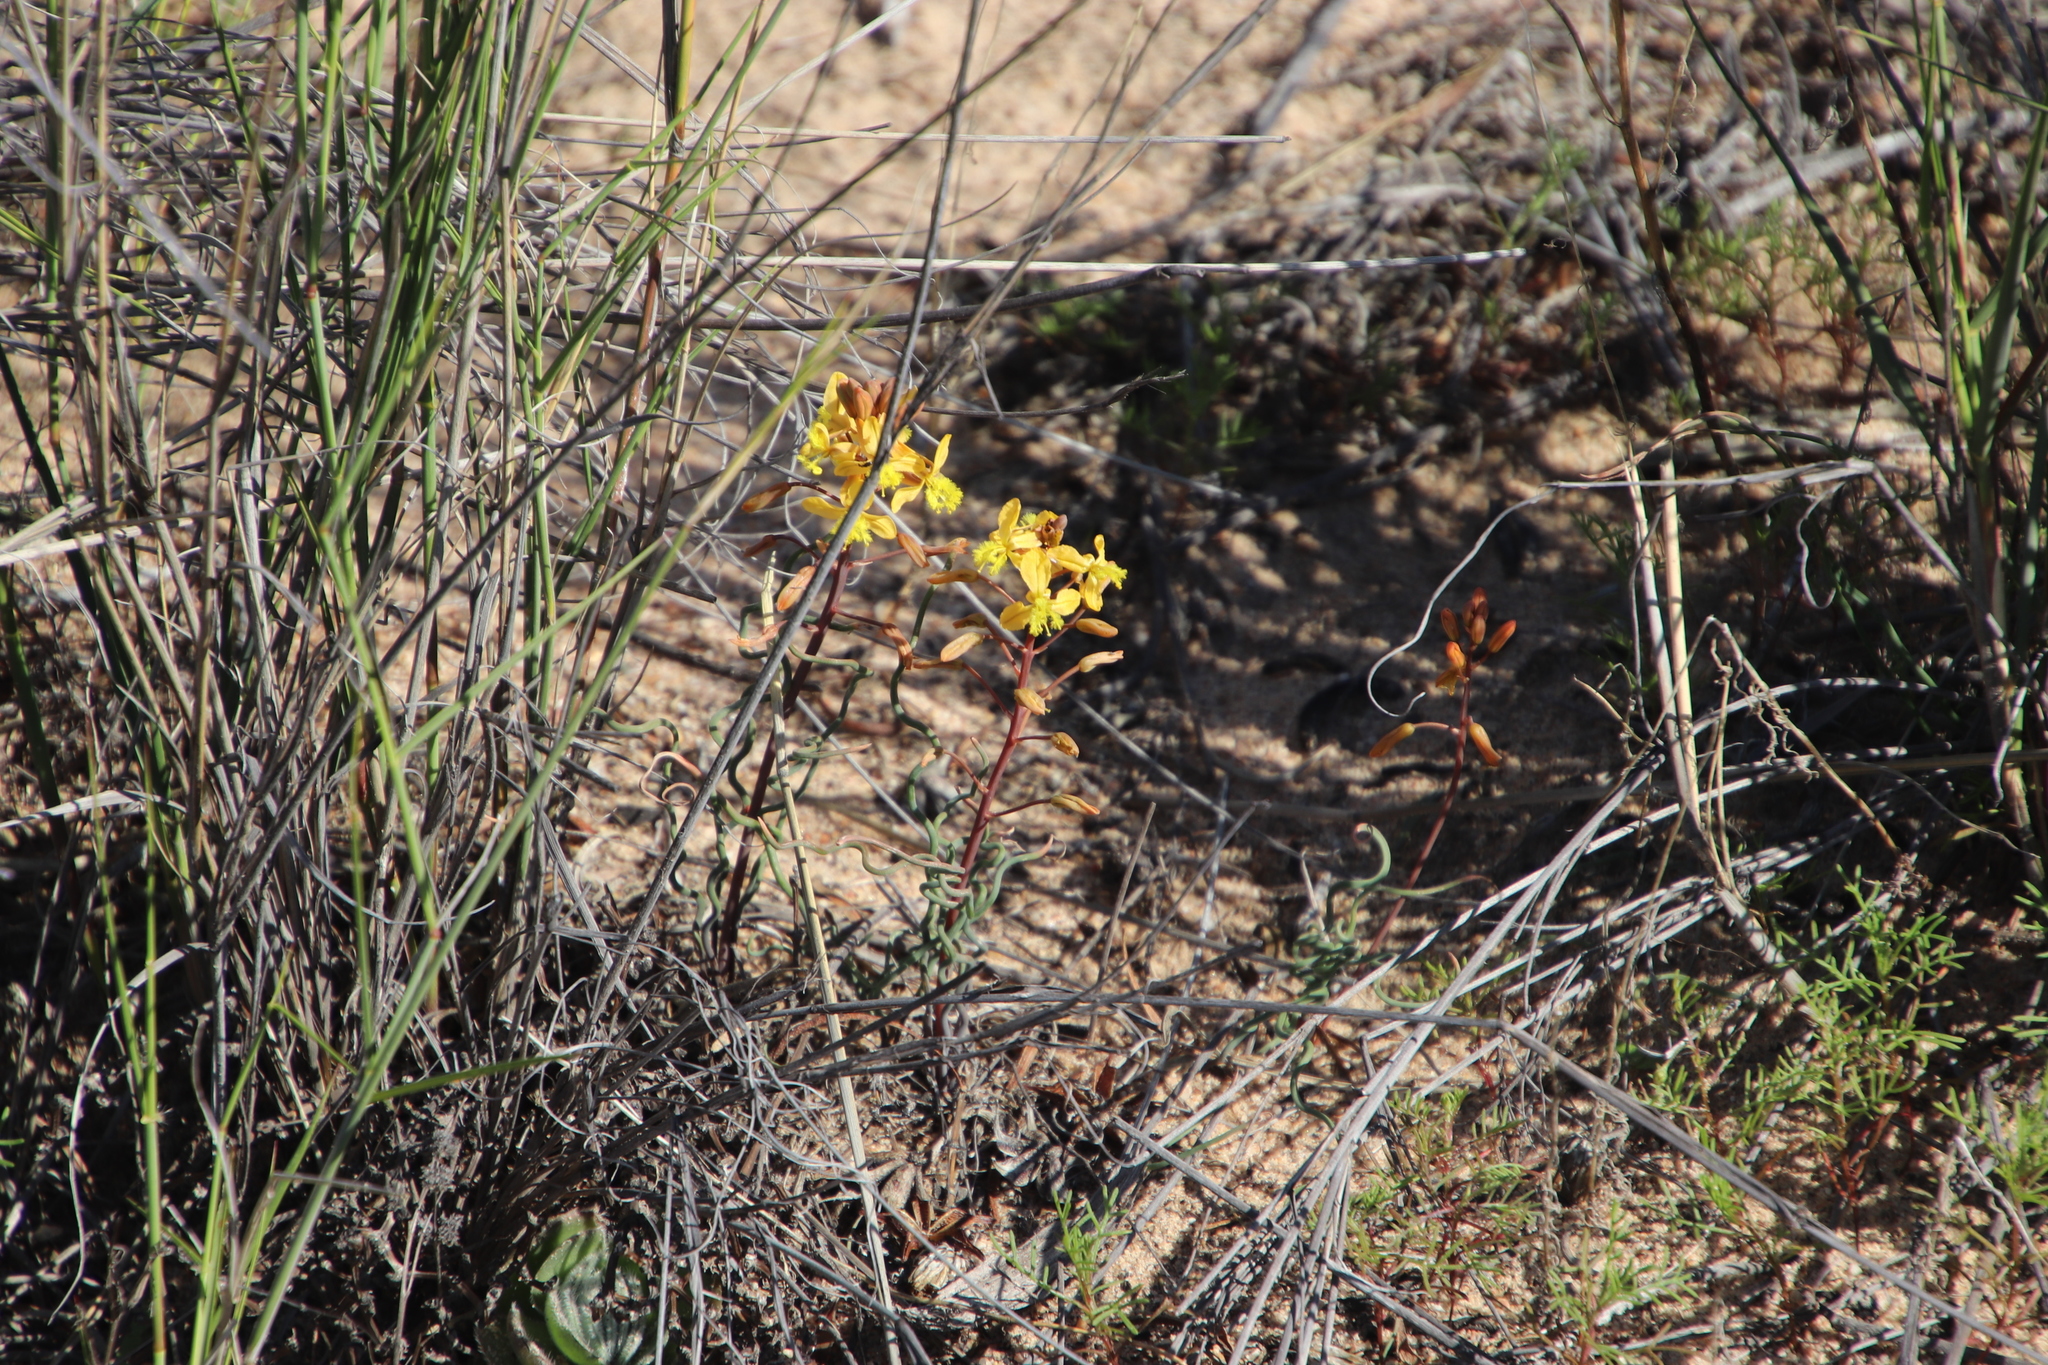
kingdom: Plantae
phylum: Tracheophyta
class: Liliopsida
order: Asparagales
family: Asphodelaceae
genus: Bulbine
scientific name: Bulbine torta
